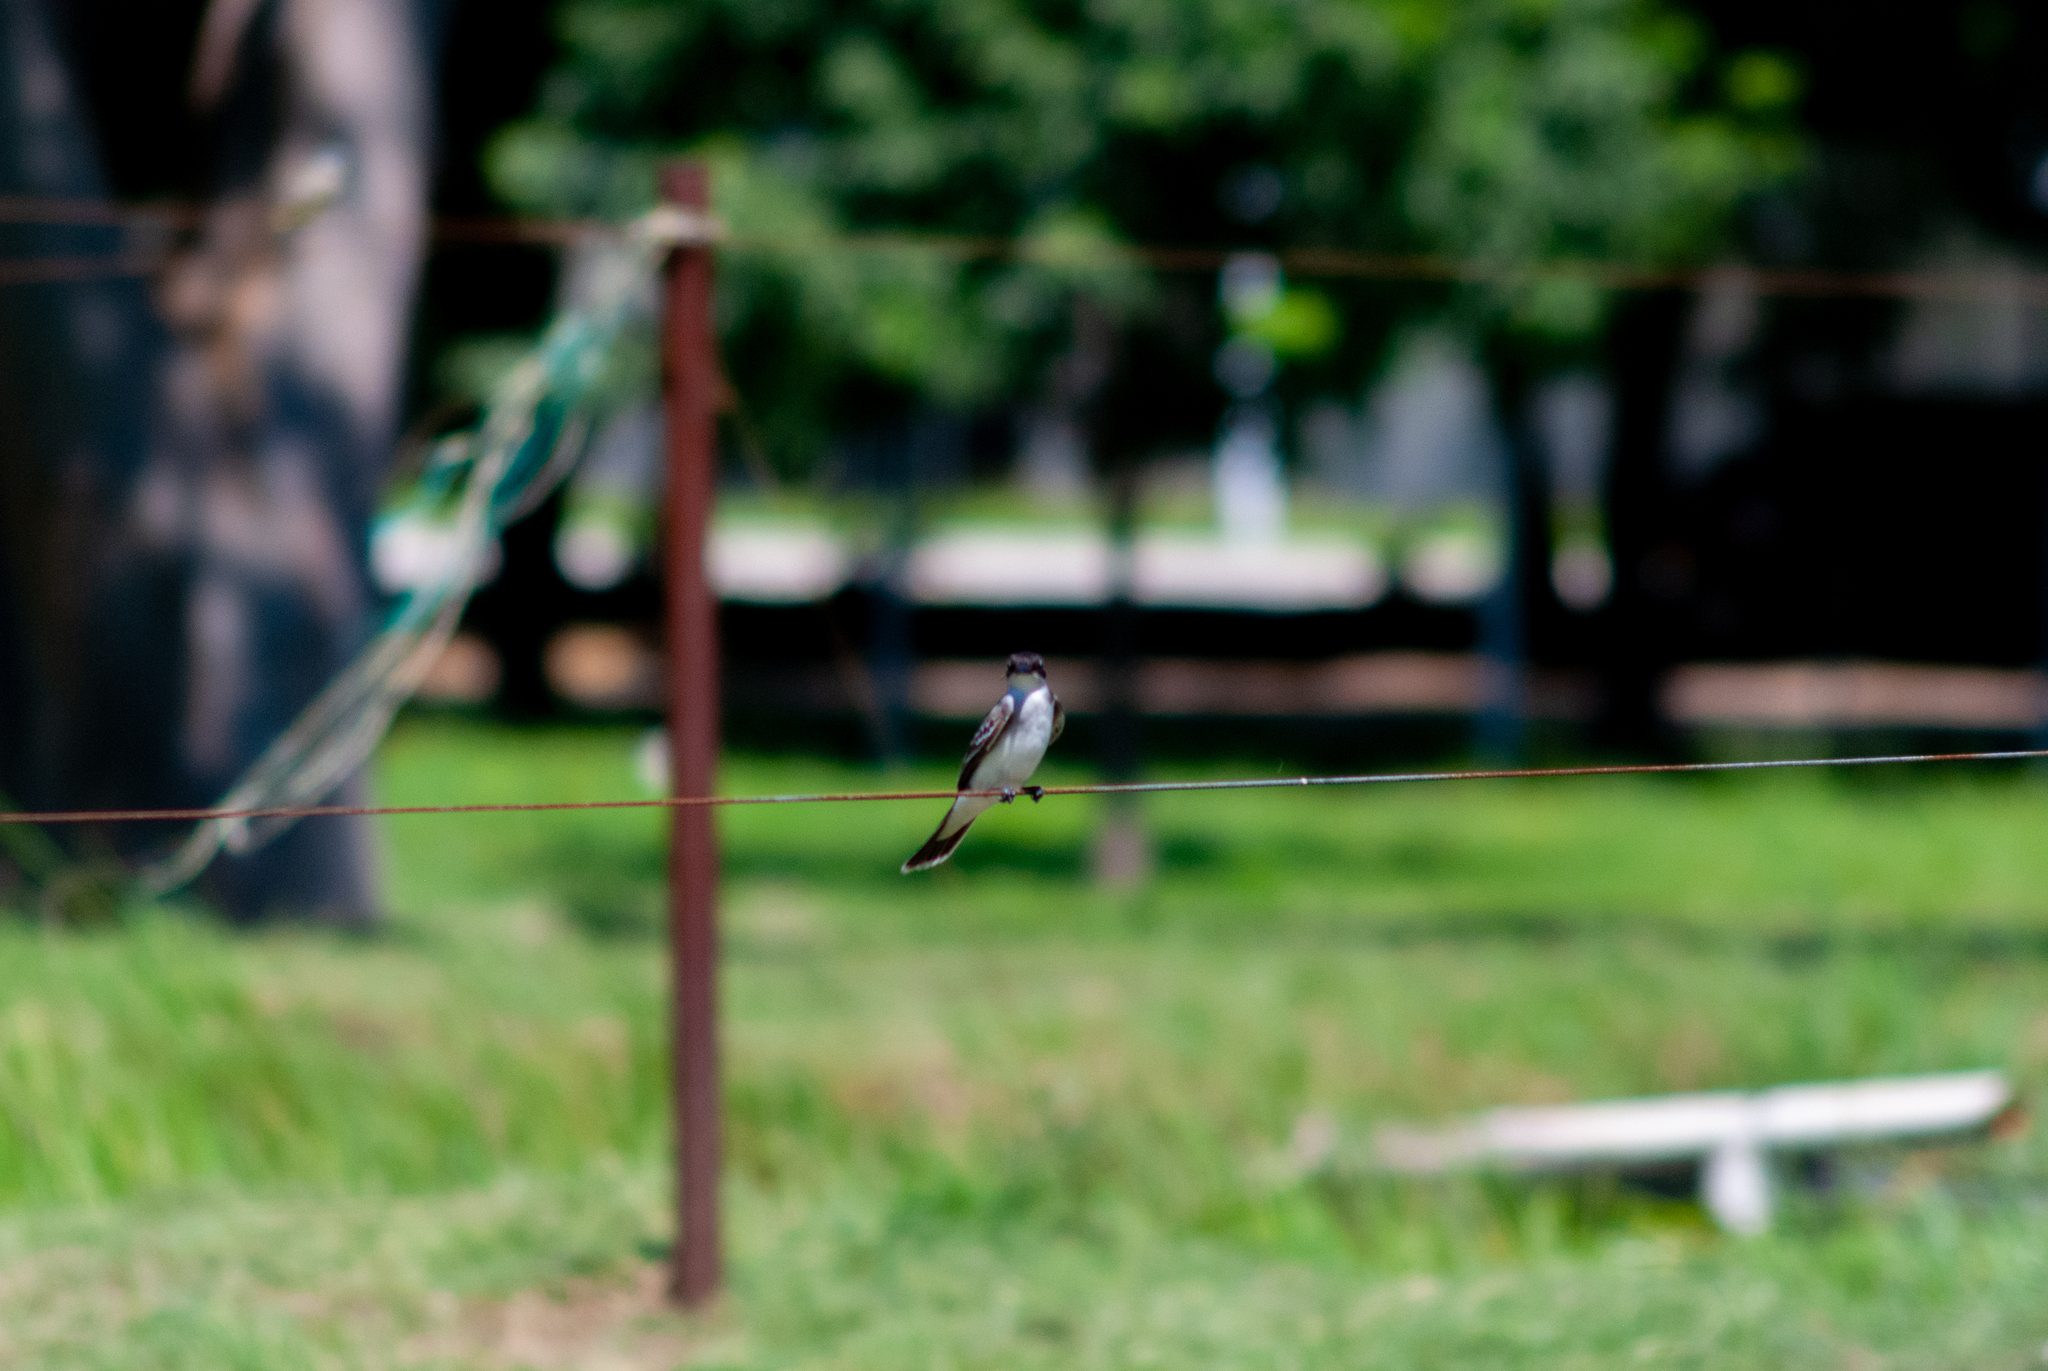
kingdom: Animalia
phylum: Chordata
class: Aves
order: Passeriformes
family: Tyrannidae
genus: Tyrannus
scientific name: Tyrannus tyrannus
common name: Eastern kingbird
